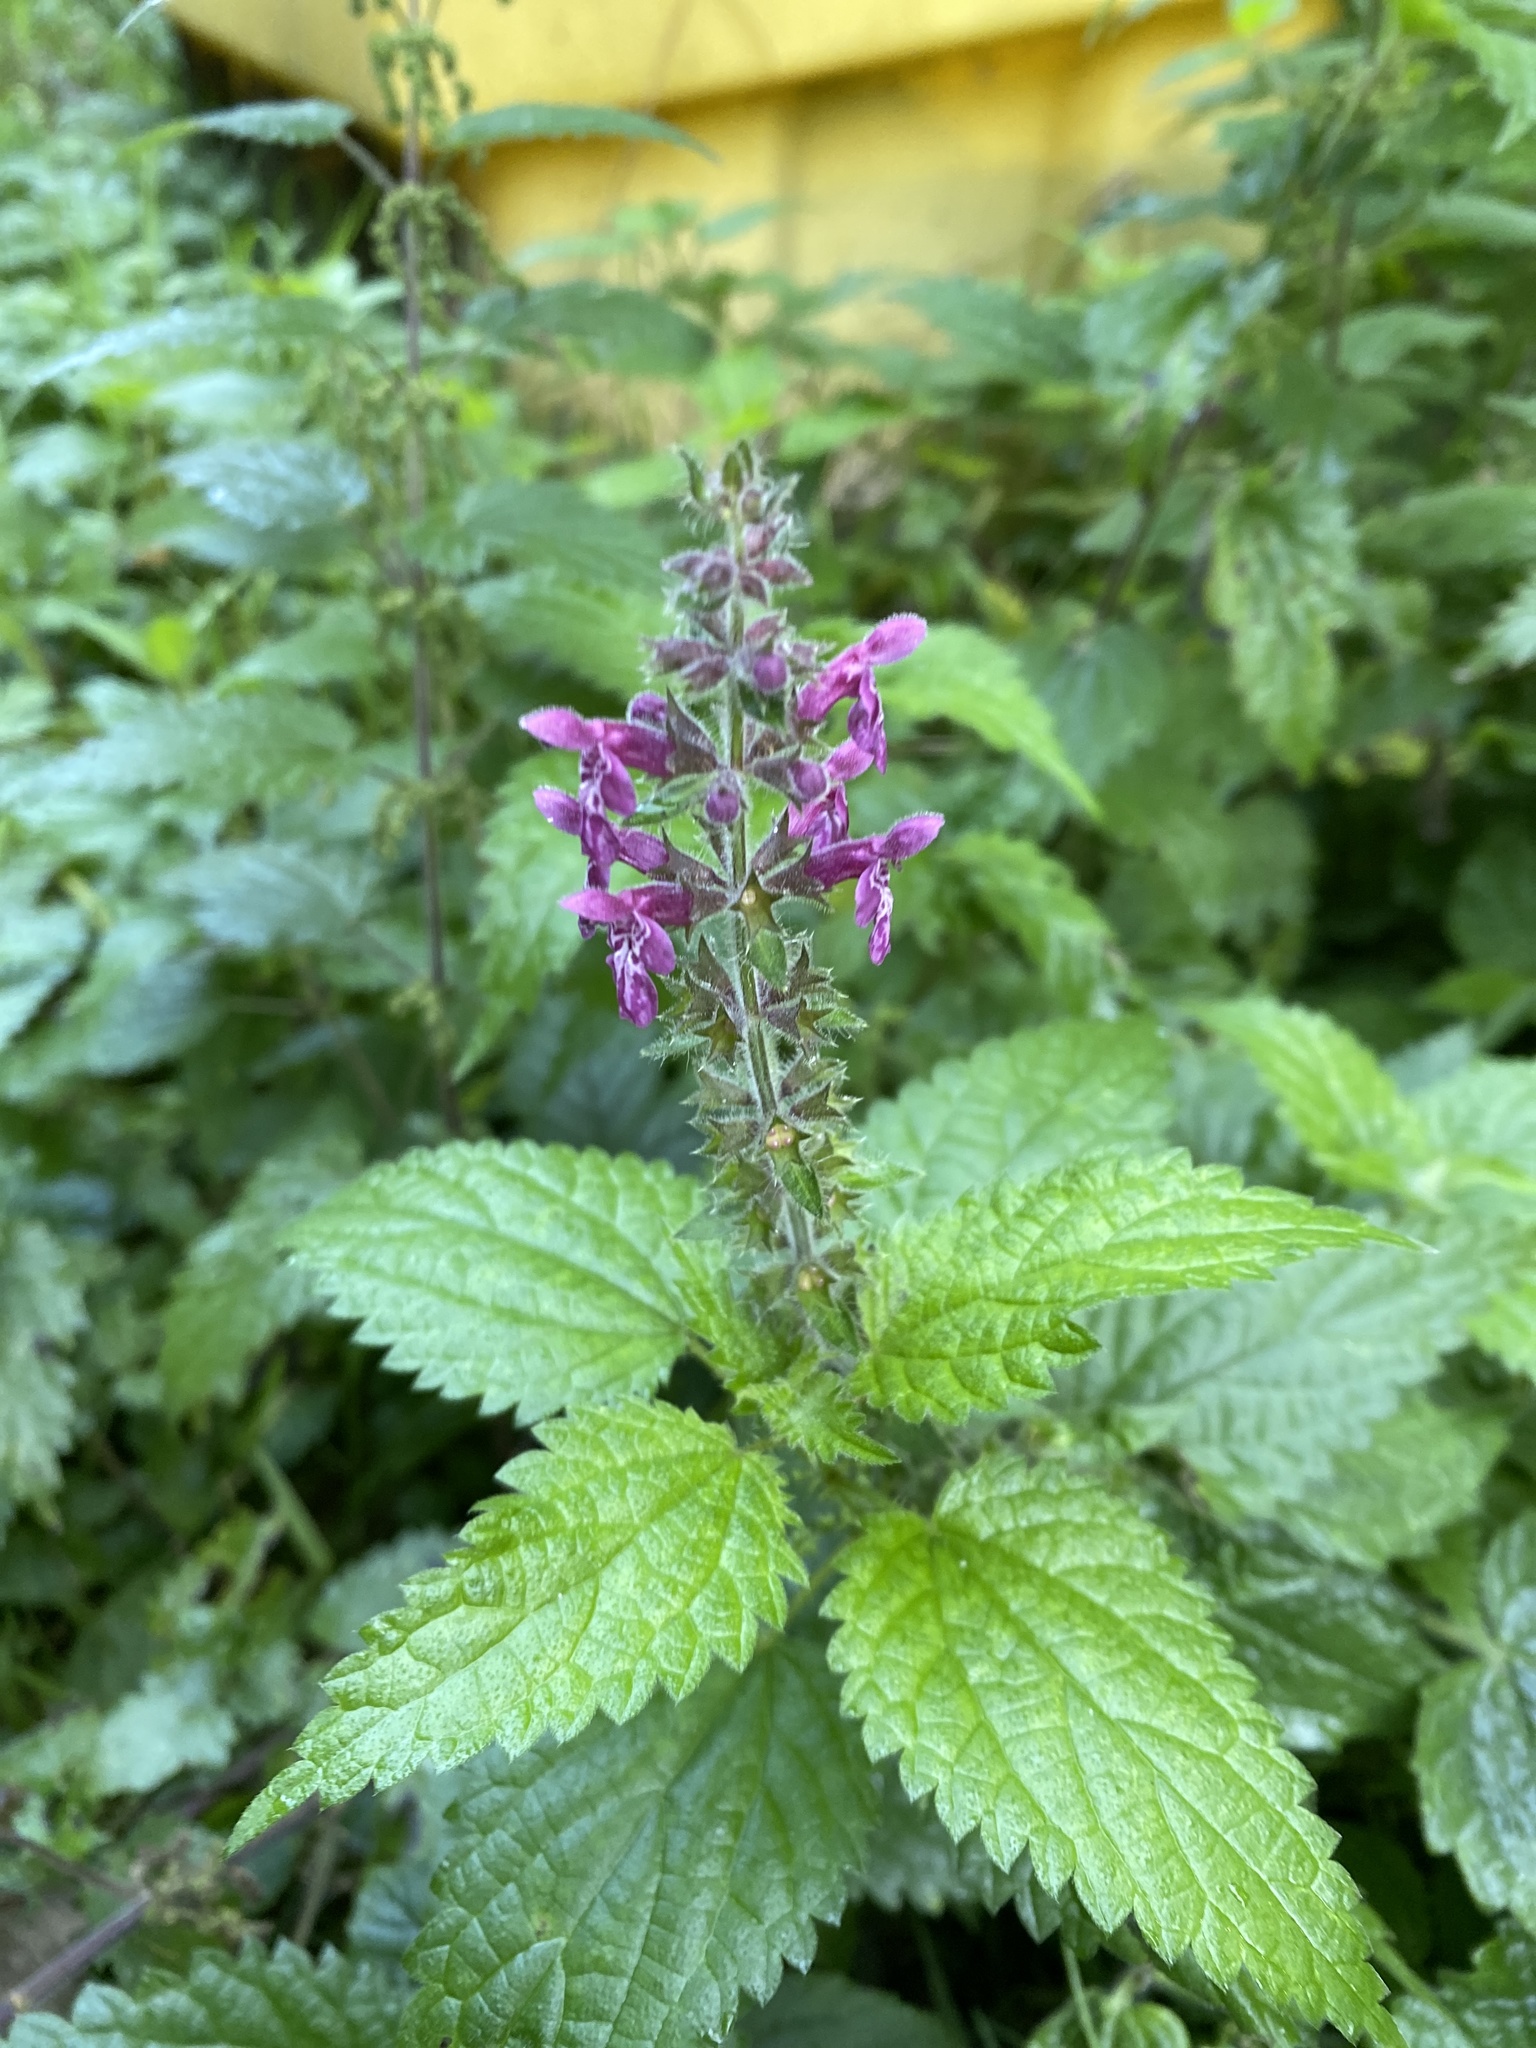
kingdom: Plantae
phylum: Tracheophyta
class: Magnoliopsida
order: Lamiales
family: Lamiaceae
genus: Stachys
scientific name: Stachys sylvatica
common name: Hedge woundwort
